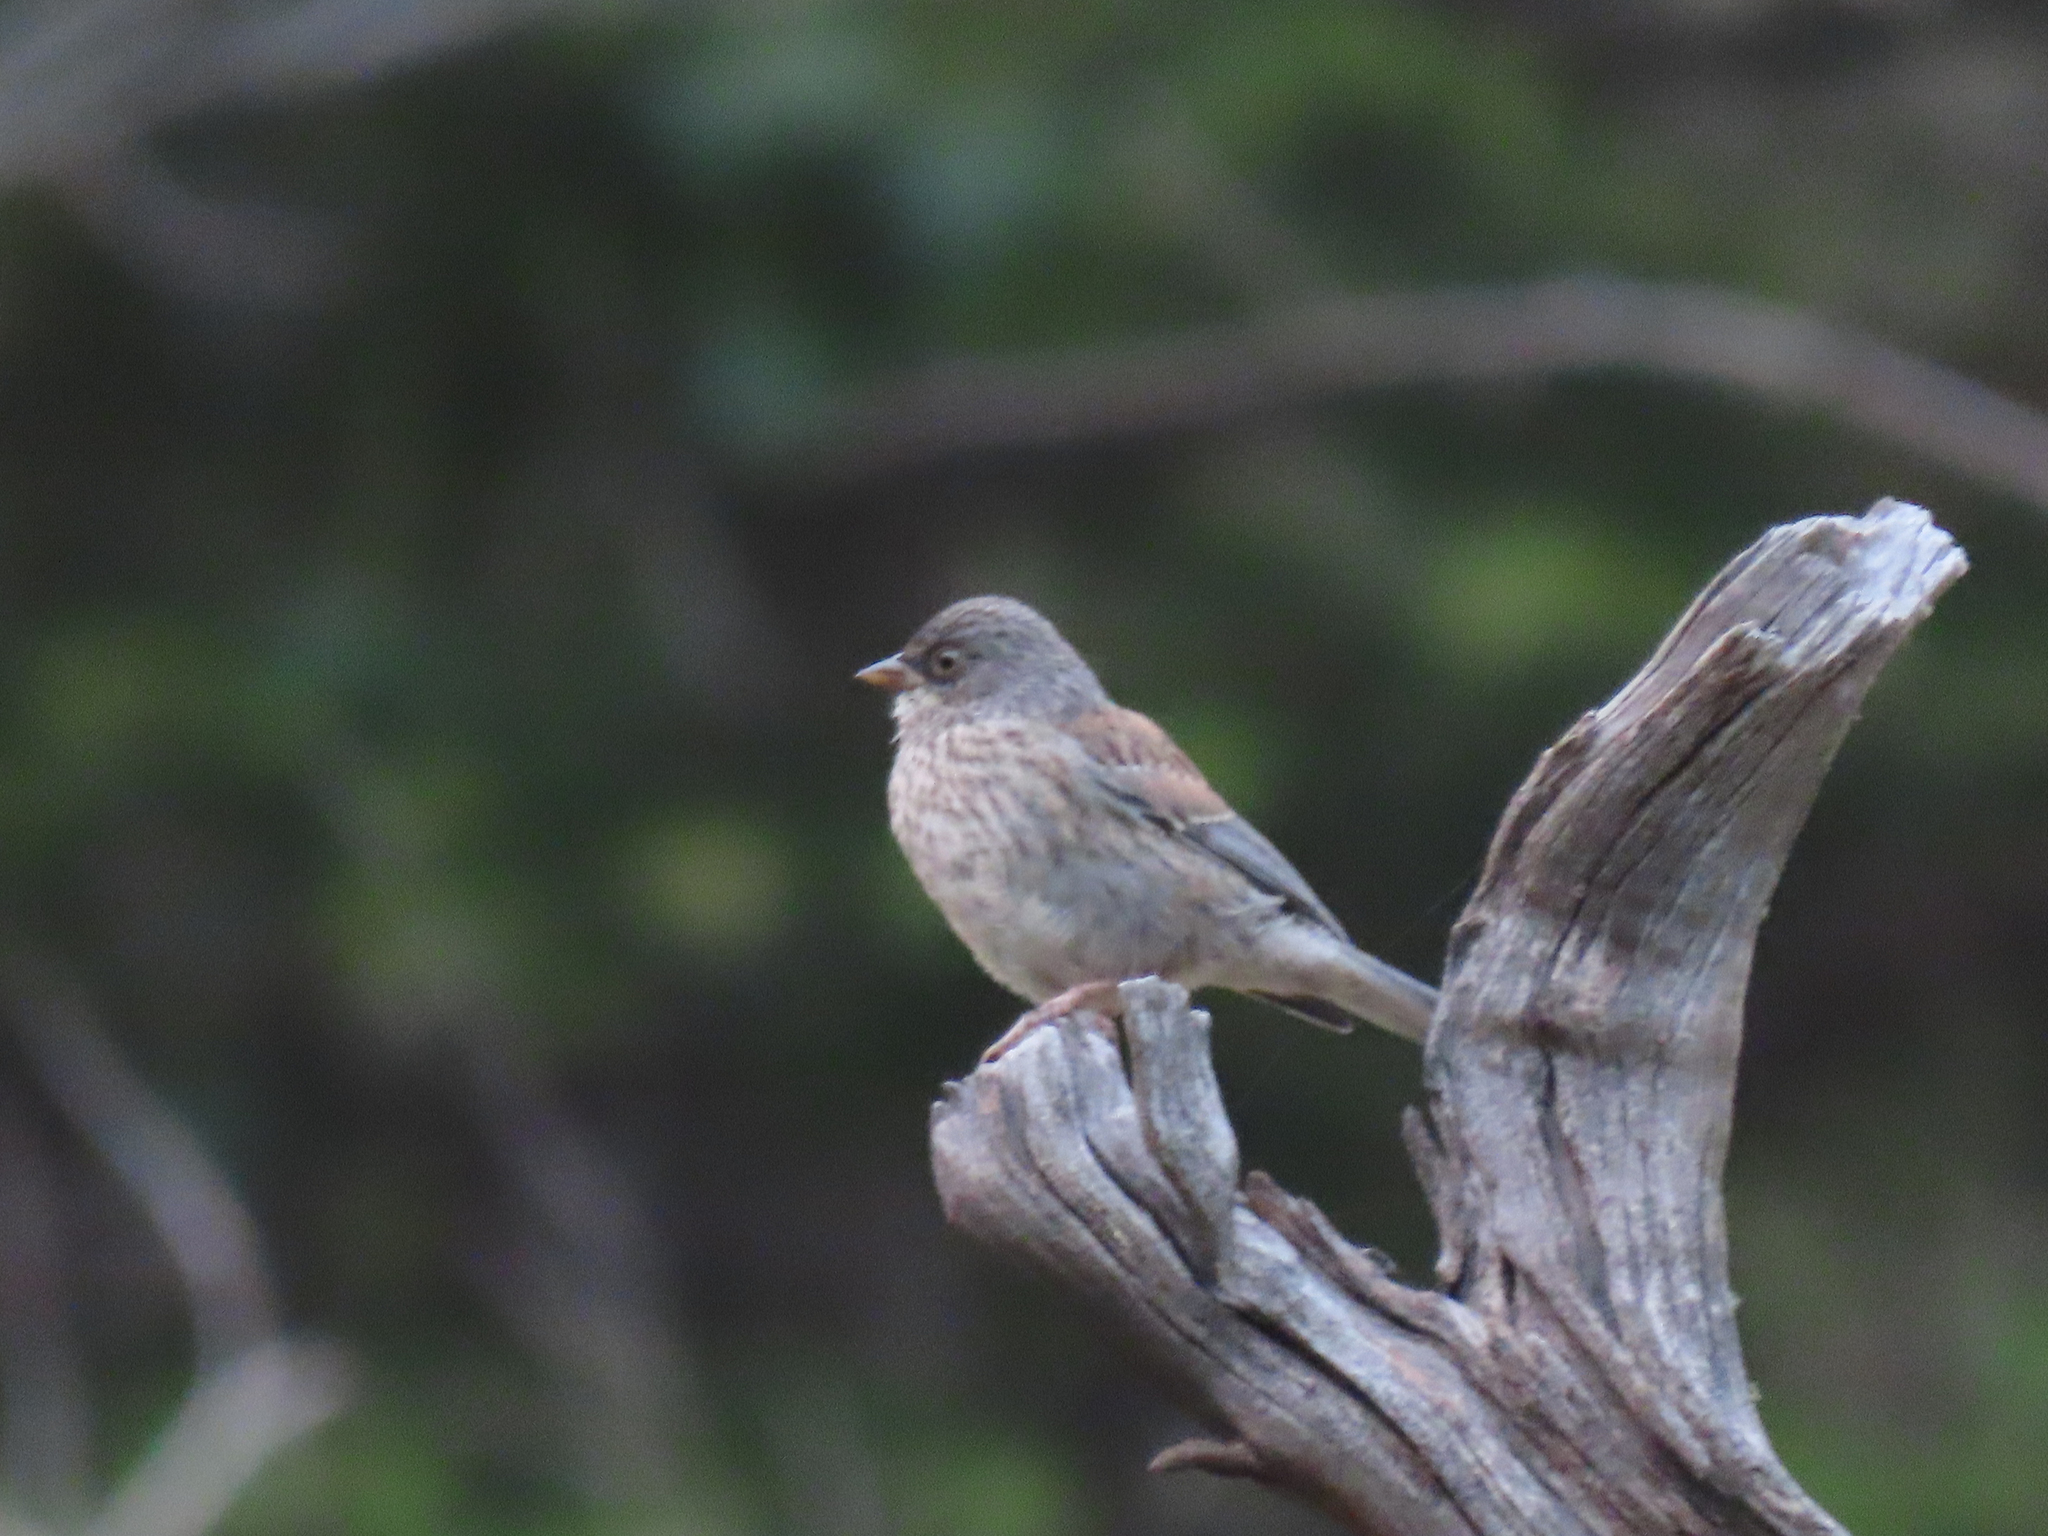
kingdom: Animalia
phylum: Chordata
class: Aves
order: Passeriformes
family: Passerellidae
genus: Junco
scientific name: Junco phaeonotus
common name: Yellow-eyed junco
